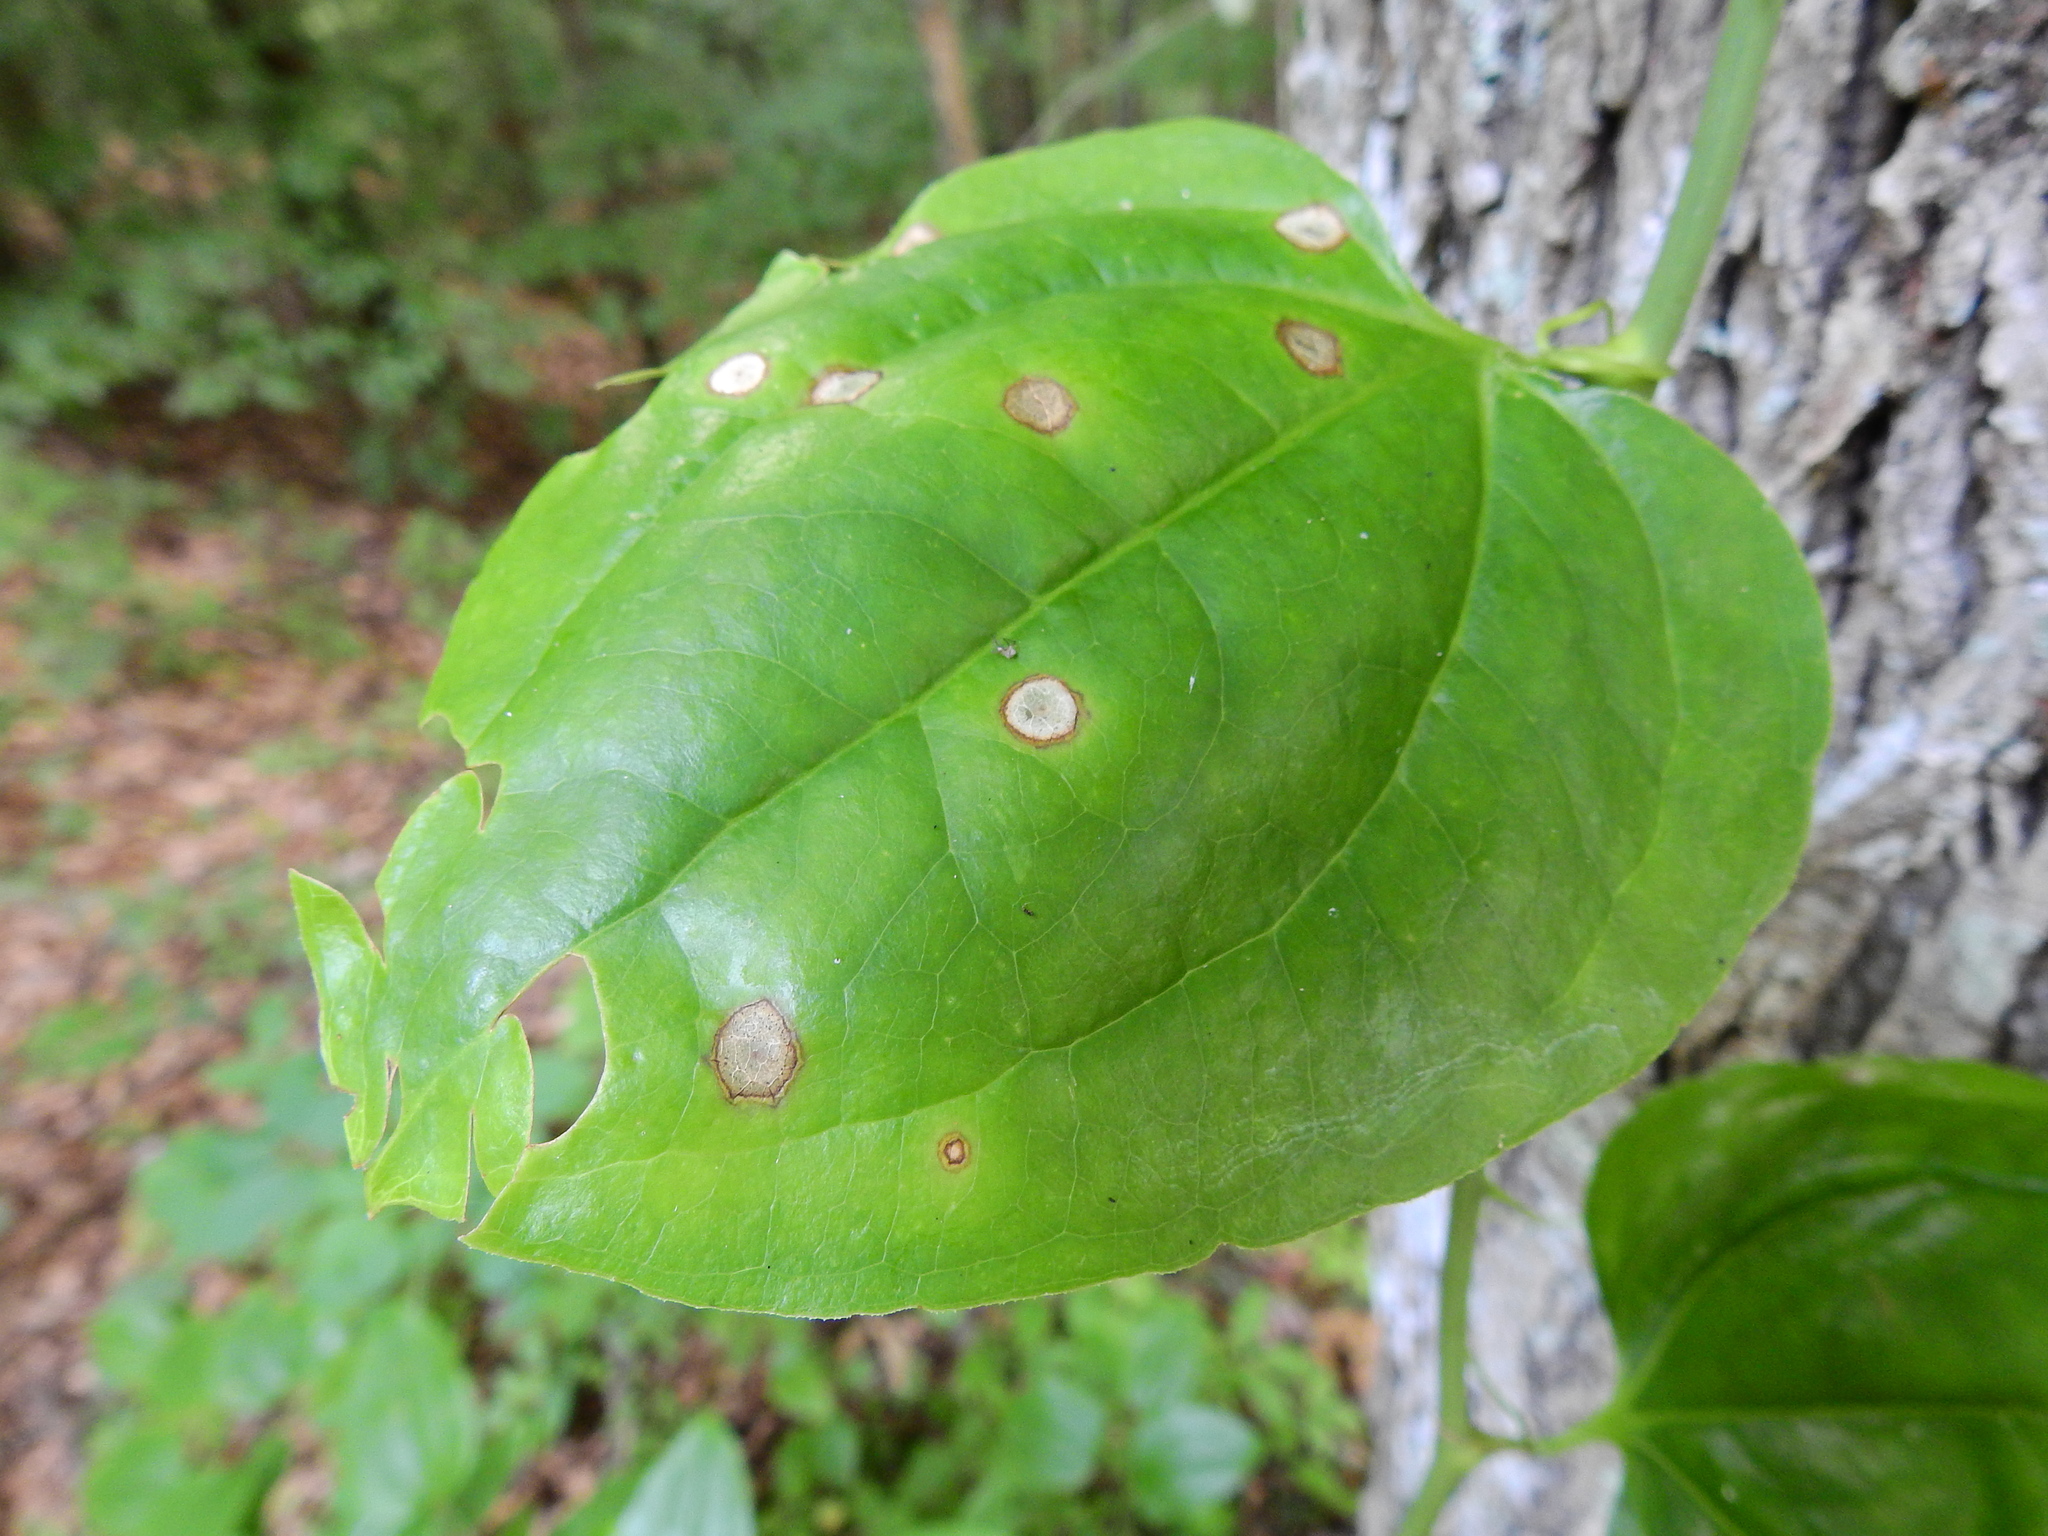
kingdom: Plantae
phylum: Tracheophyta
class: Liliopsida
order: Liliales
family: Smilacaceae
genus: Smilax
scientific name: Smilax rotundifolia
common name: Bullbriar
